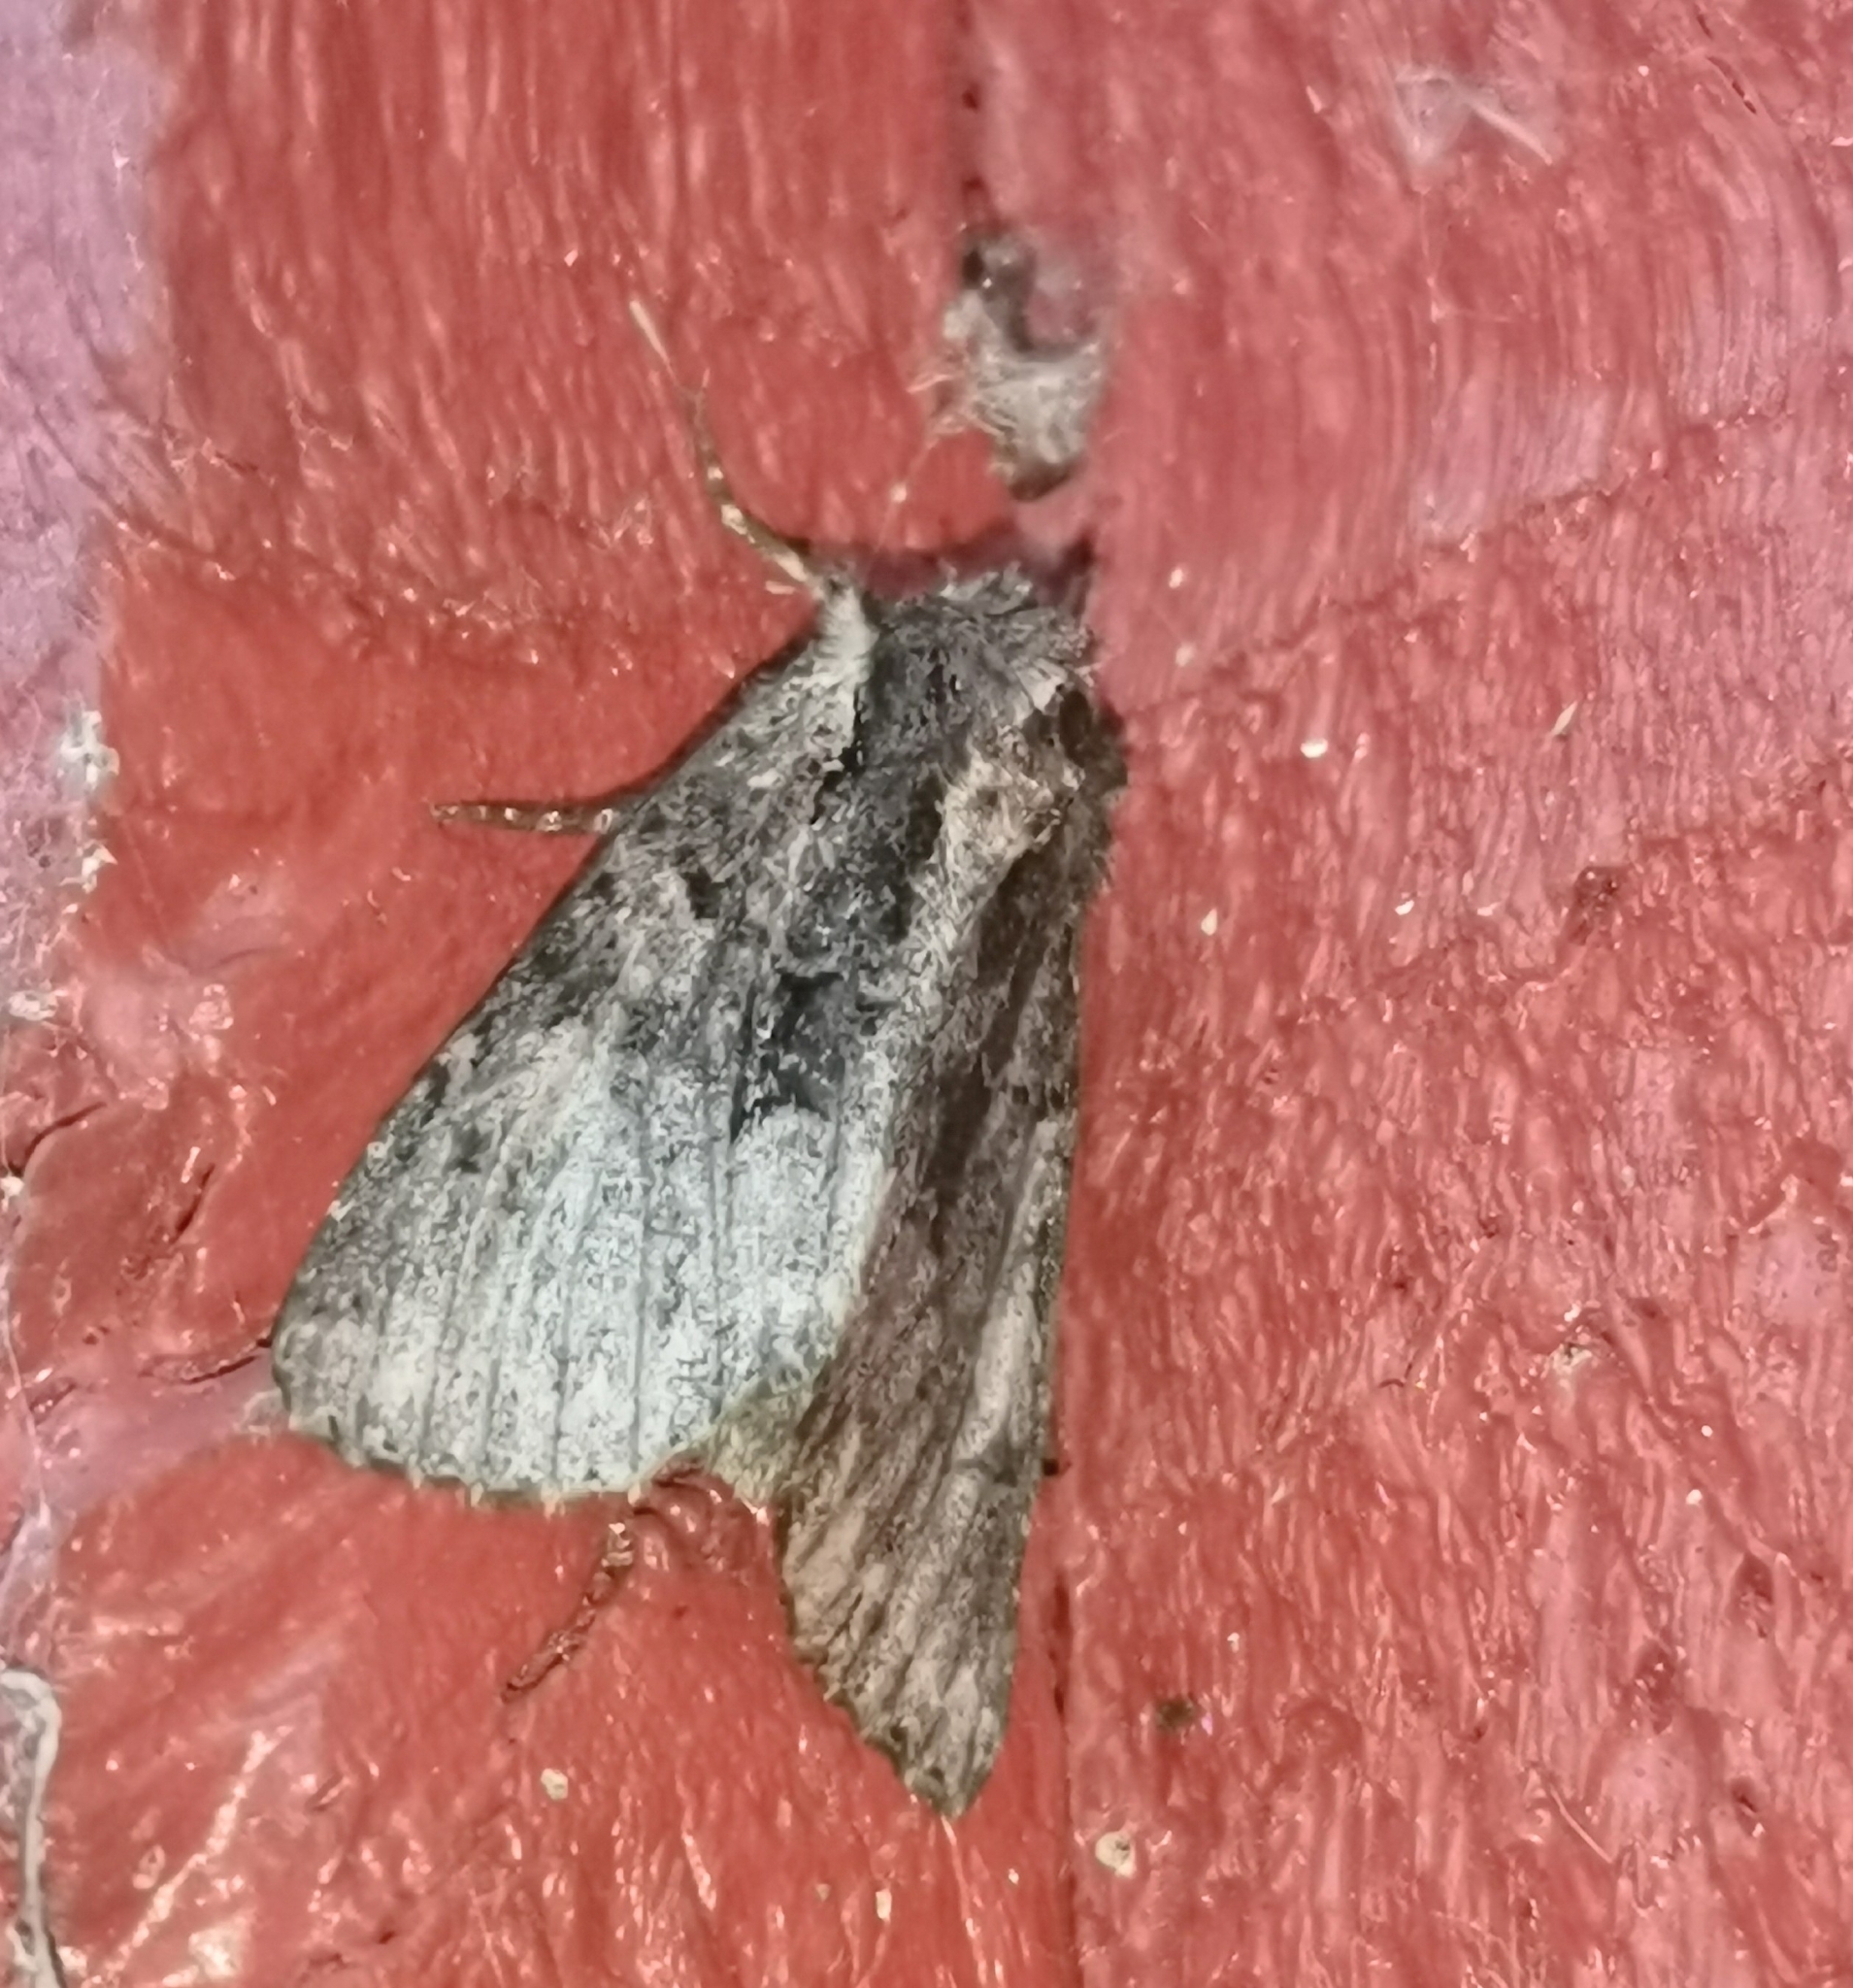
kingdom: Animalia
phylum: Arthropoda
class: Insecta
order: Lepidoptera
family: Noctuidae
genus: Mniotype
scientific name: Mniotype satura
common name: Beautiful arches
